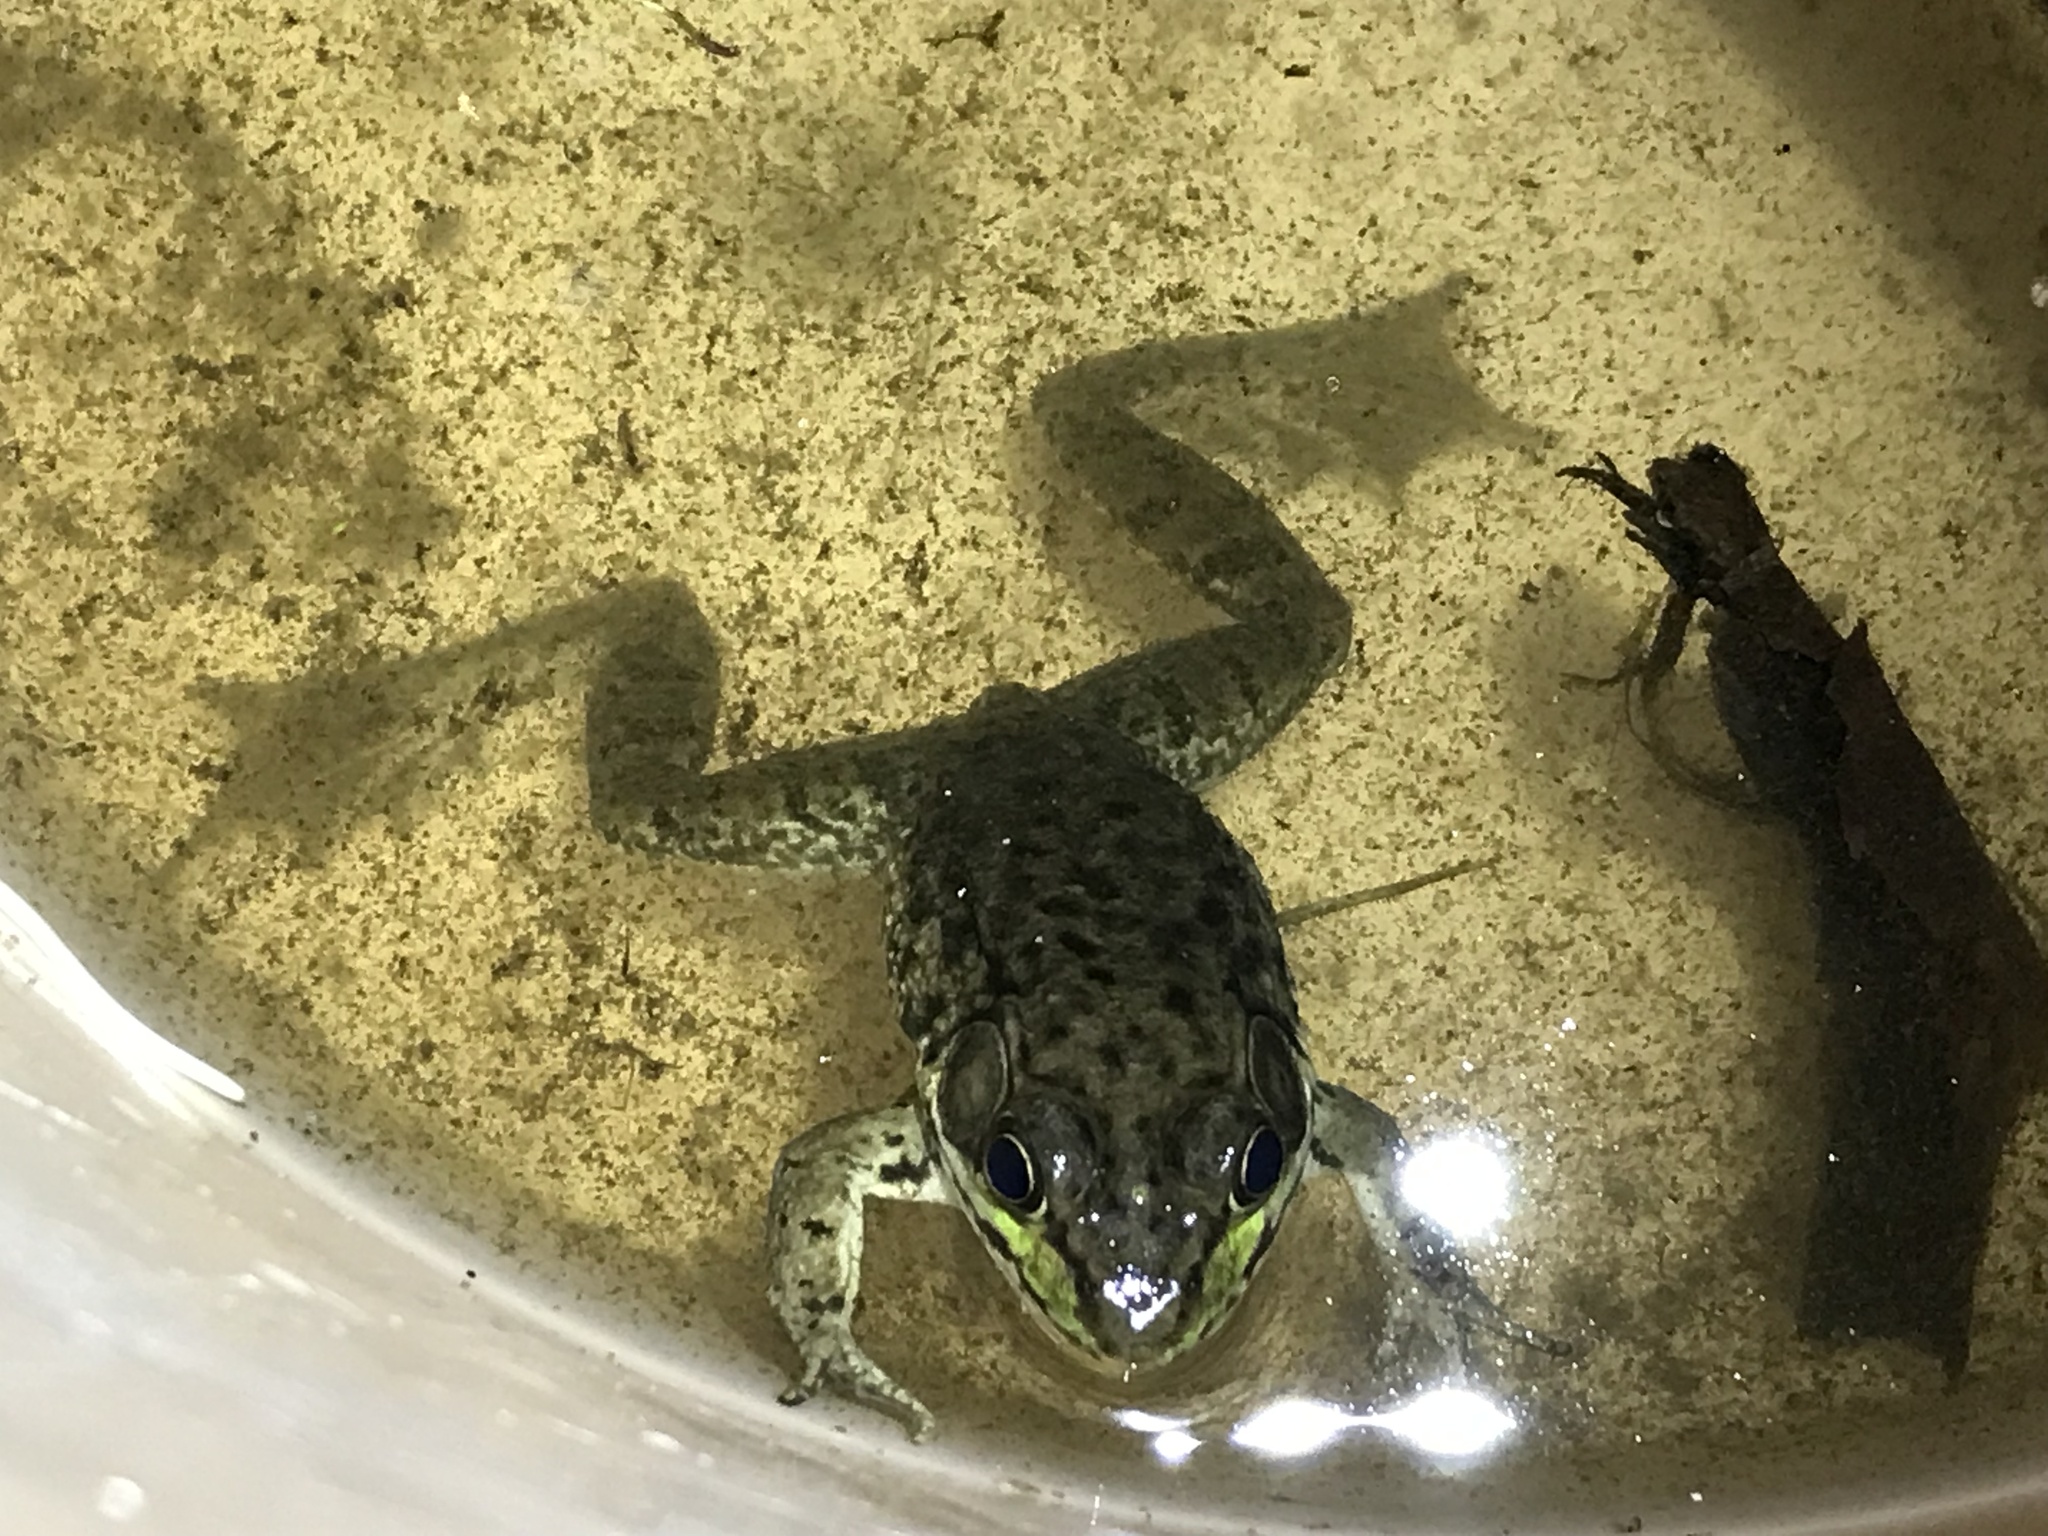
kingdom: Animalia
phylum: Chordata
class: Amphibia
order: Anura
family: Ranidae
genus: Lithobates
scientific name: Lithobates clamitans
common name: Green frog
